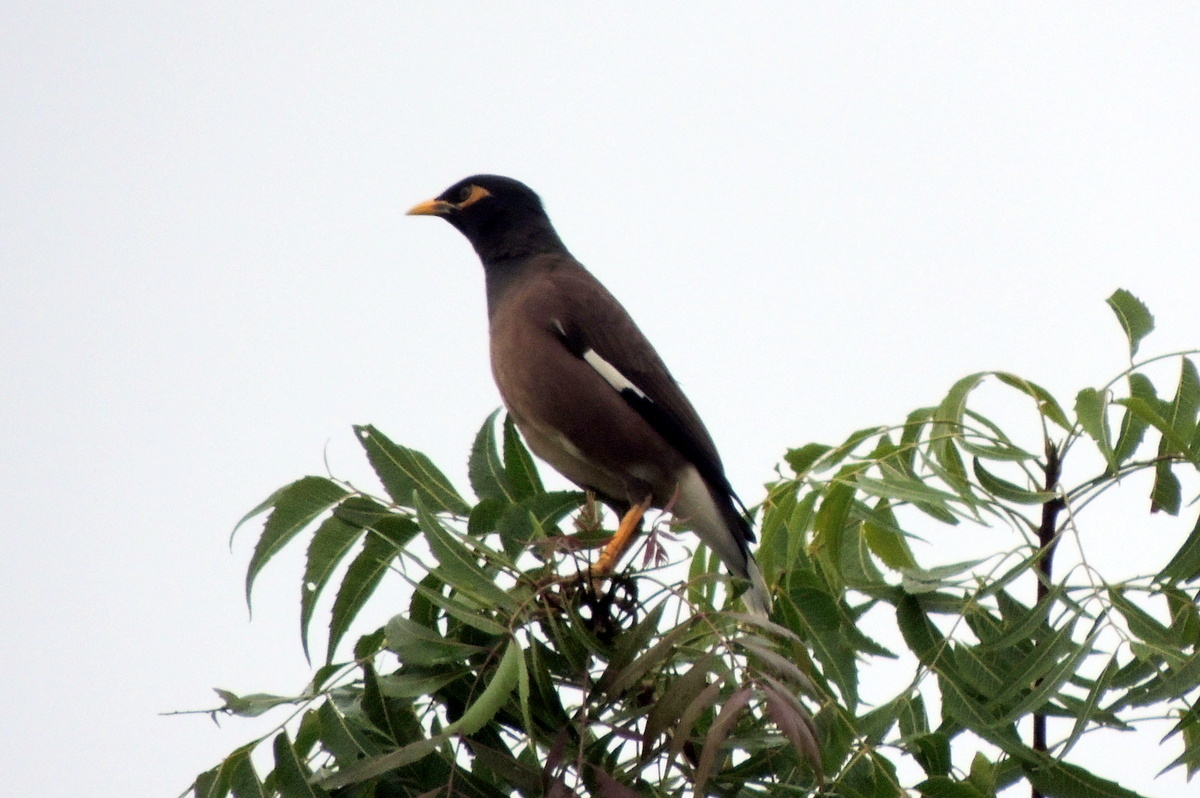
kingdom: Animalia
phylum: Chordata
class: Aves
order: Passeriformes
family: Sturnidae
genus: Acridotheres
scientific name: Acridotheres tristis
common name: Common myna
